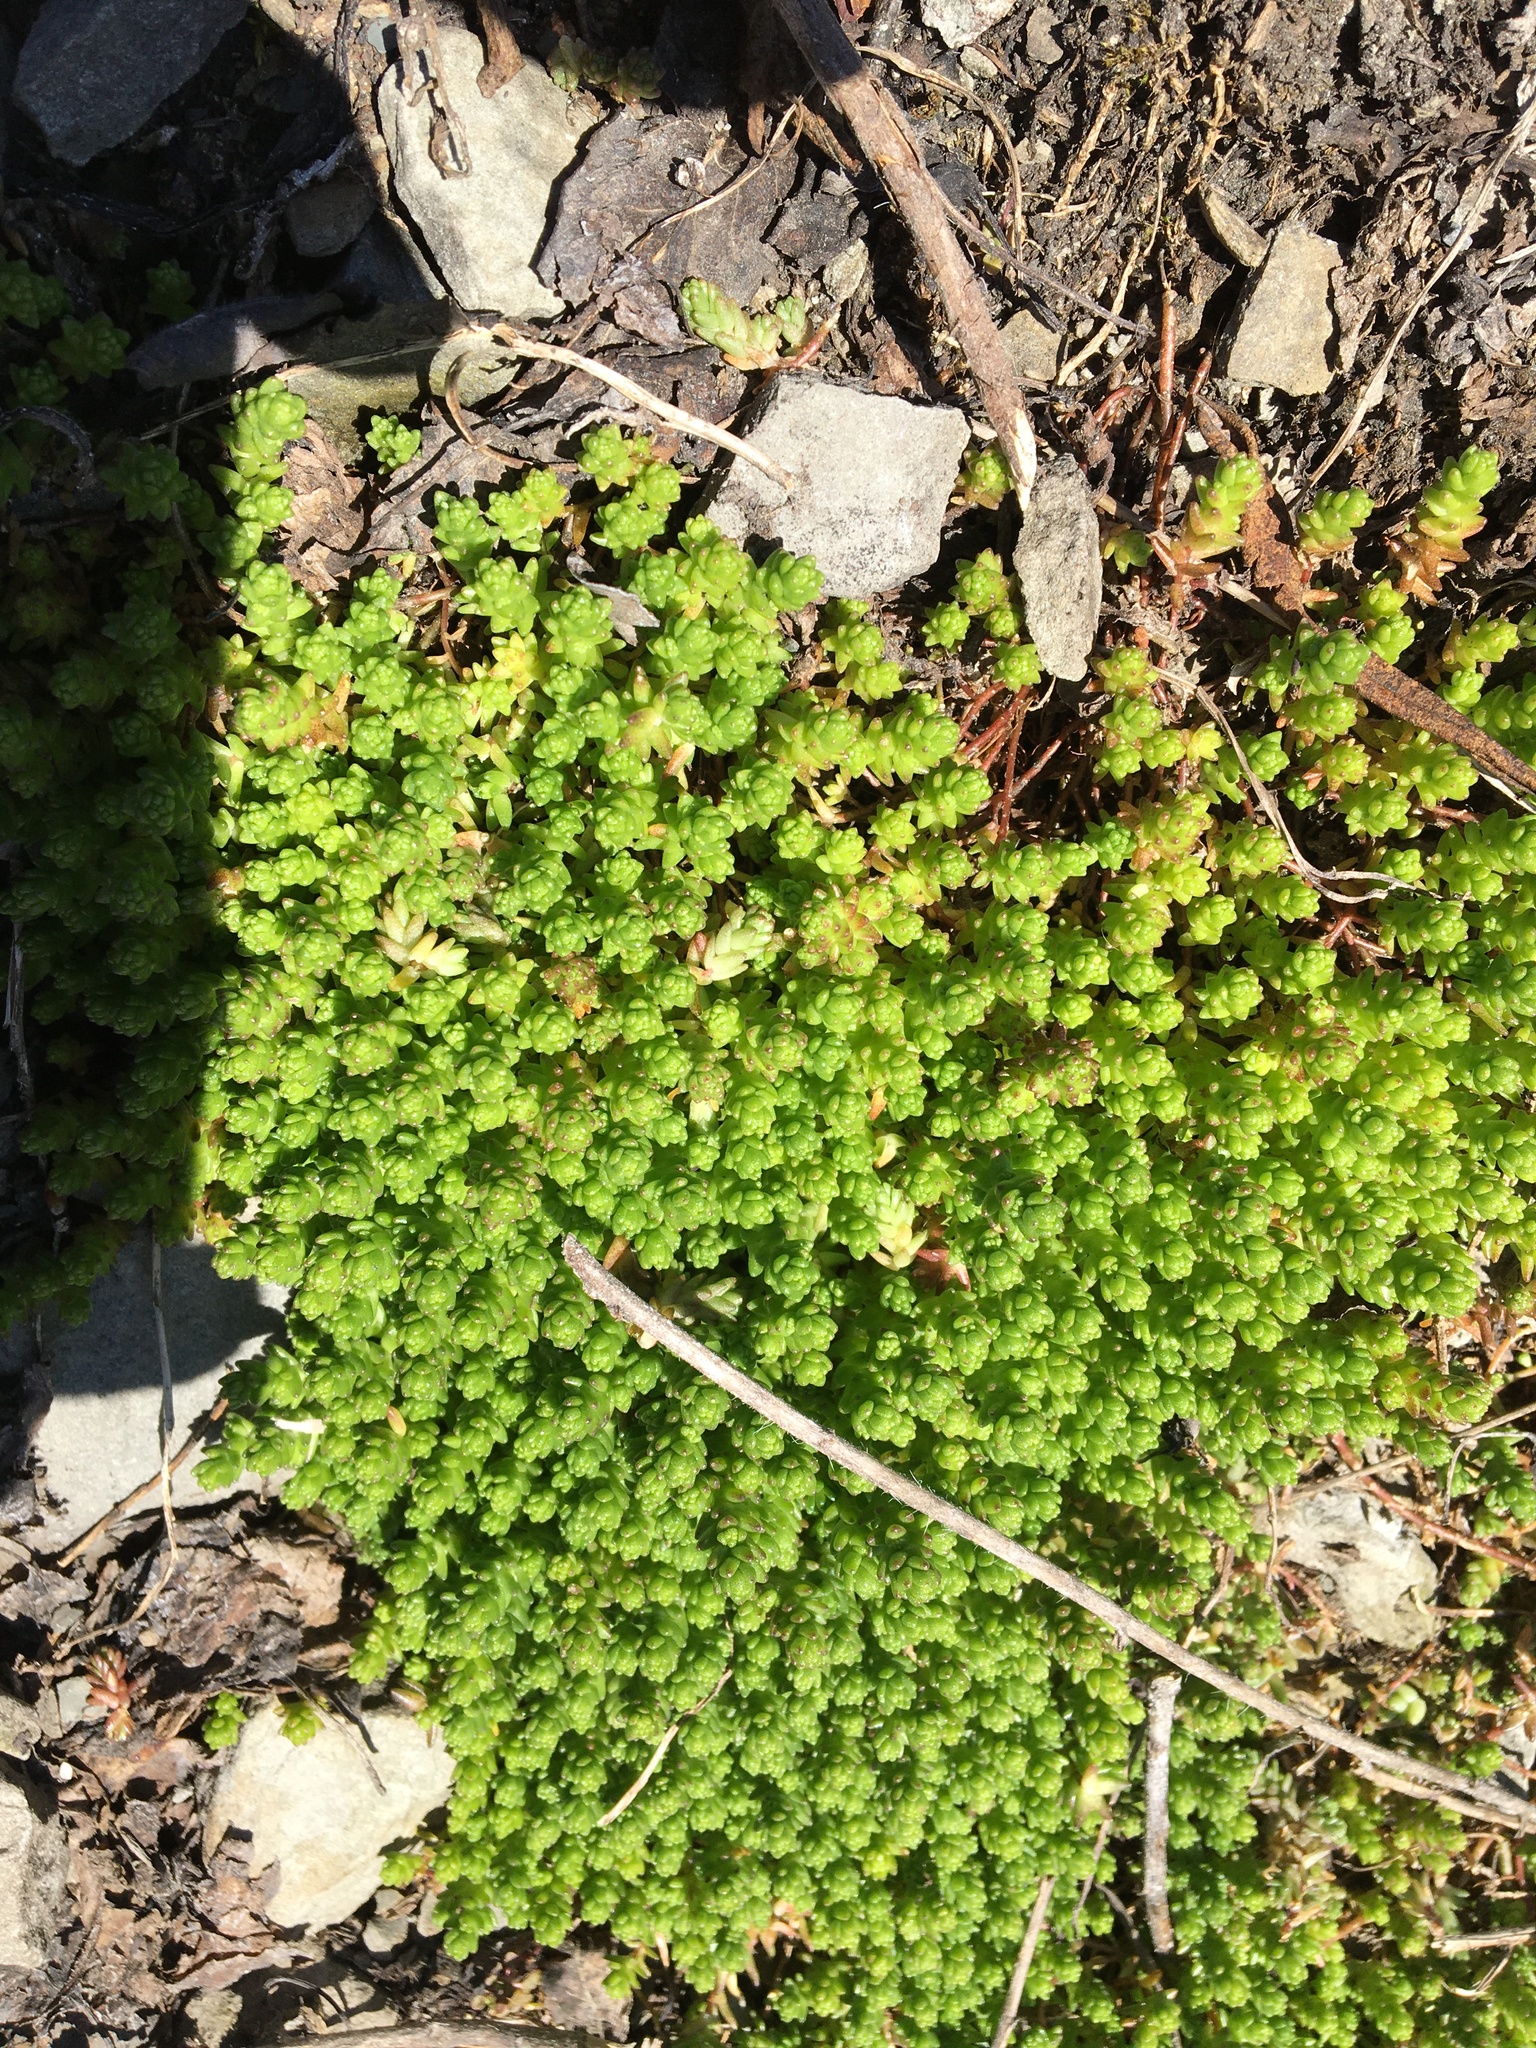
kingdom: Plantae
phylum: Tracheophyta
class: Magnoliopsida
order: Saxifragales
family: Crassulaceae
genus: Sedum
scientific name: Sedum acre
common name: Biting stonecrop
